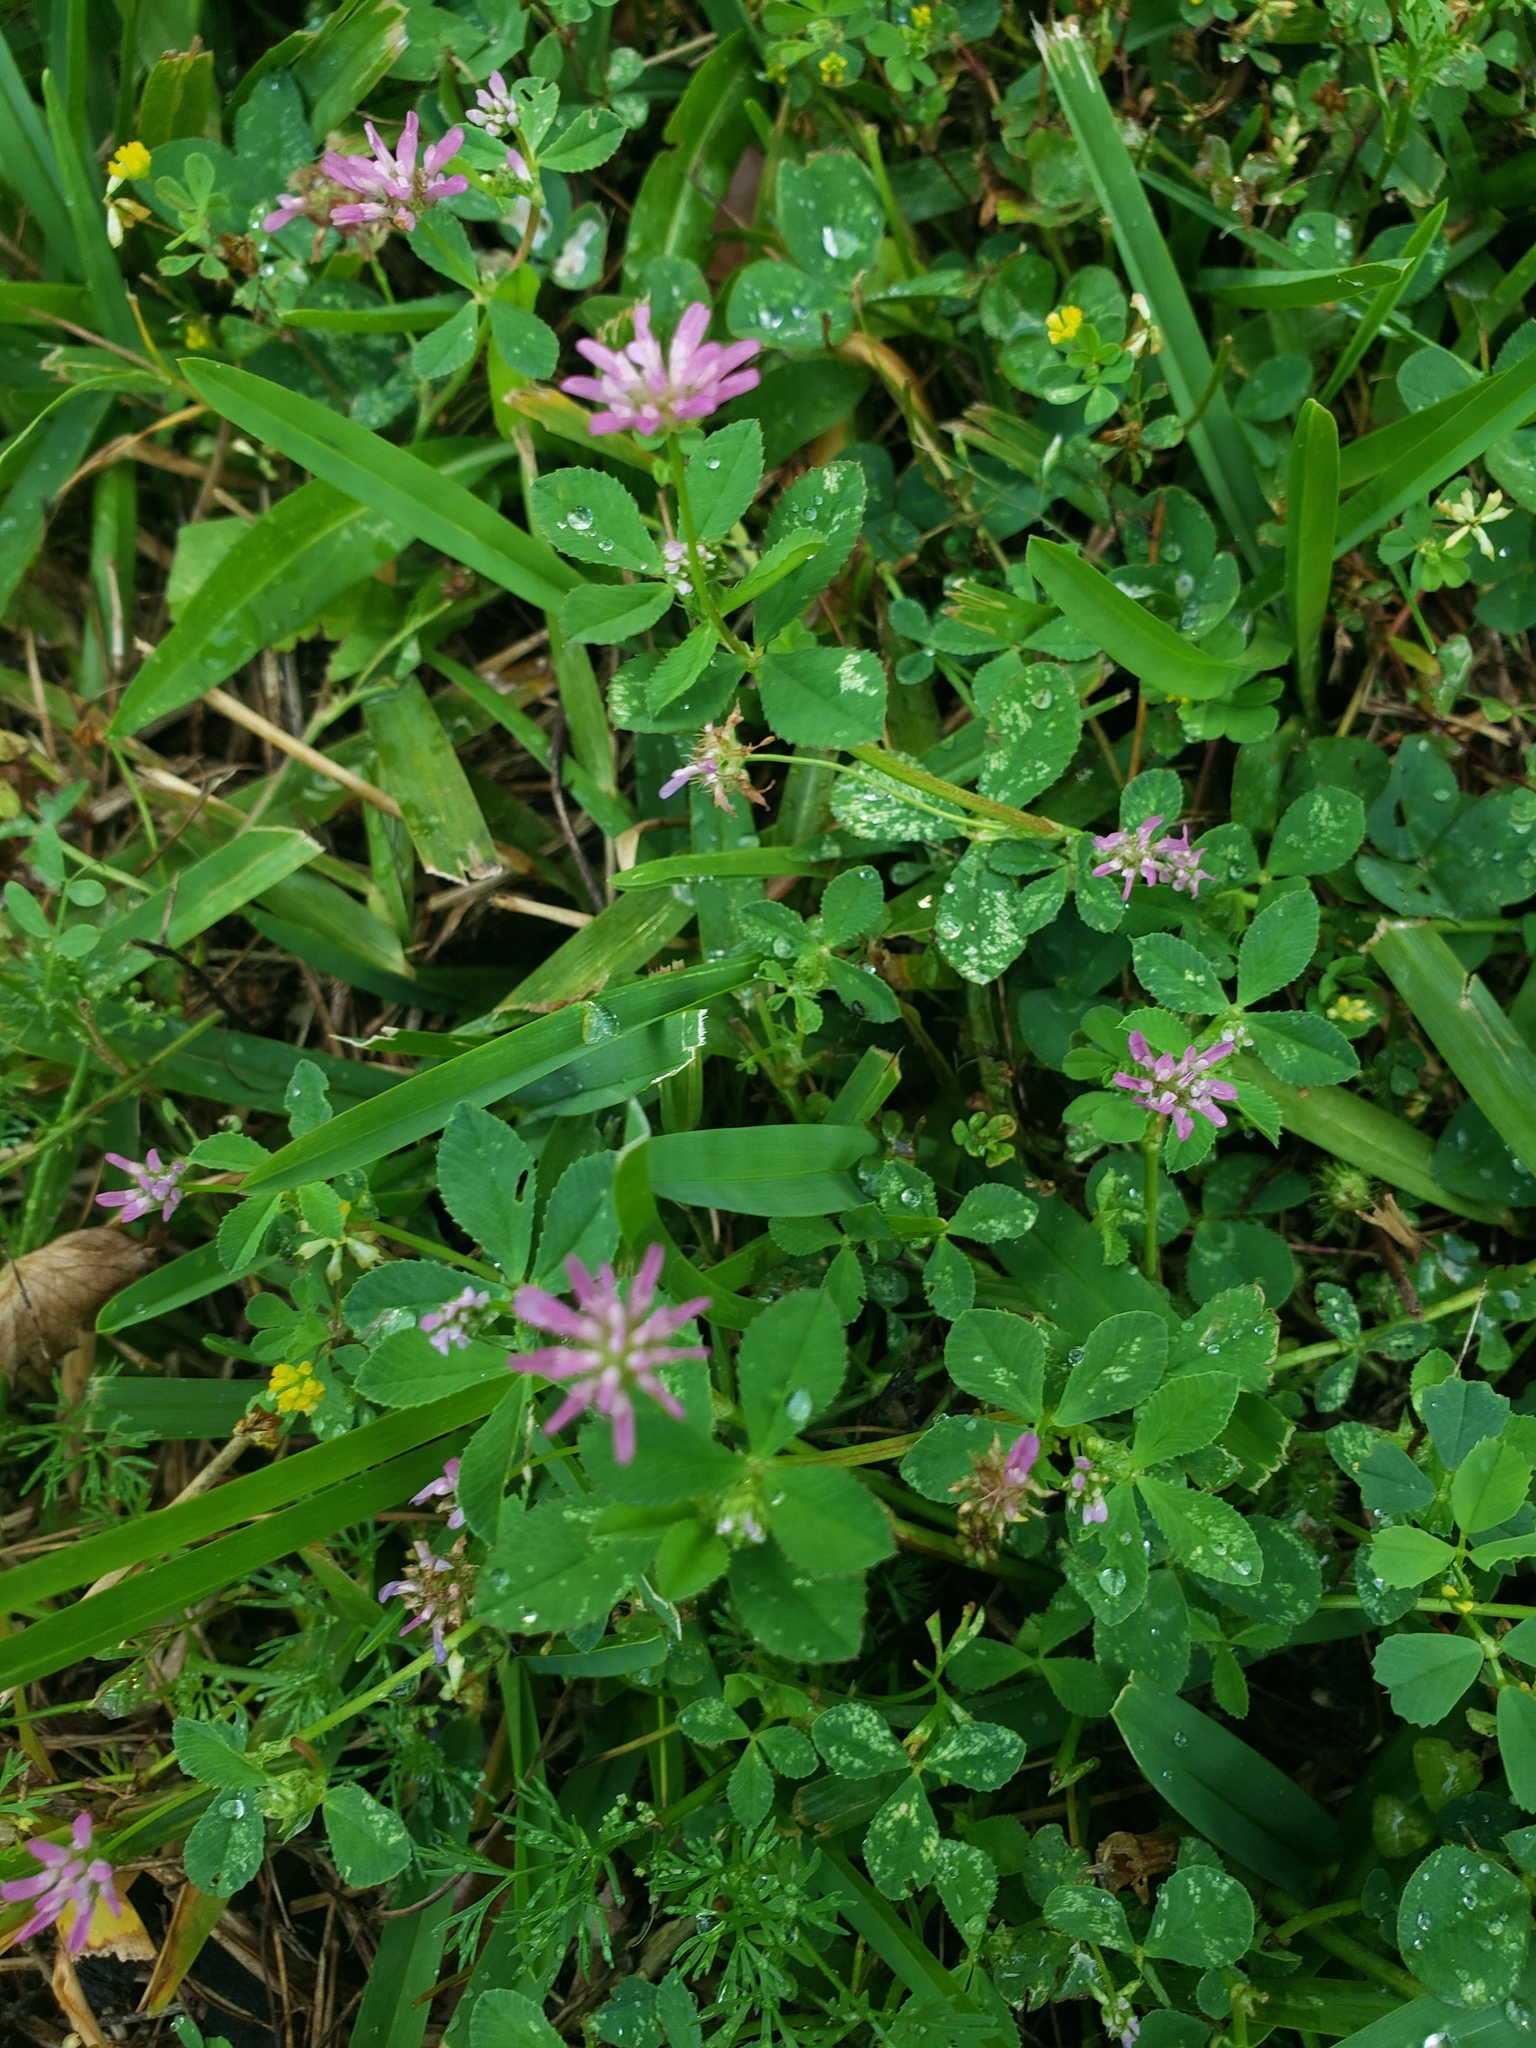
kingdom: Plantae
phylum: Tracheophyta
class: Magnoliopsida
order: Fabales
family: Fabaceae
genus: Trifolium
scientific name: Trifolium resupinatum
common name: Reversed clover
